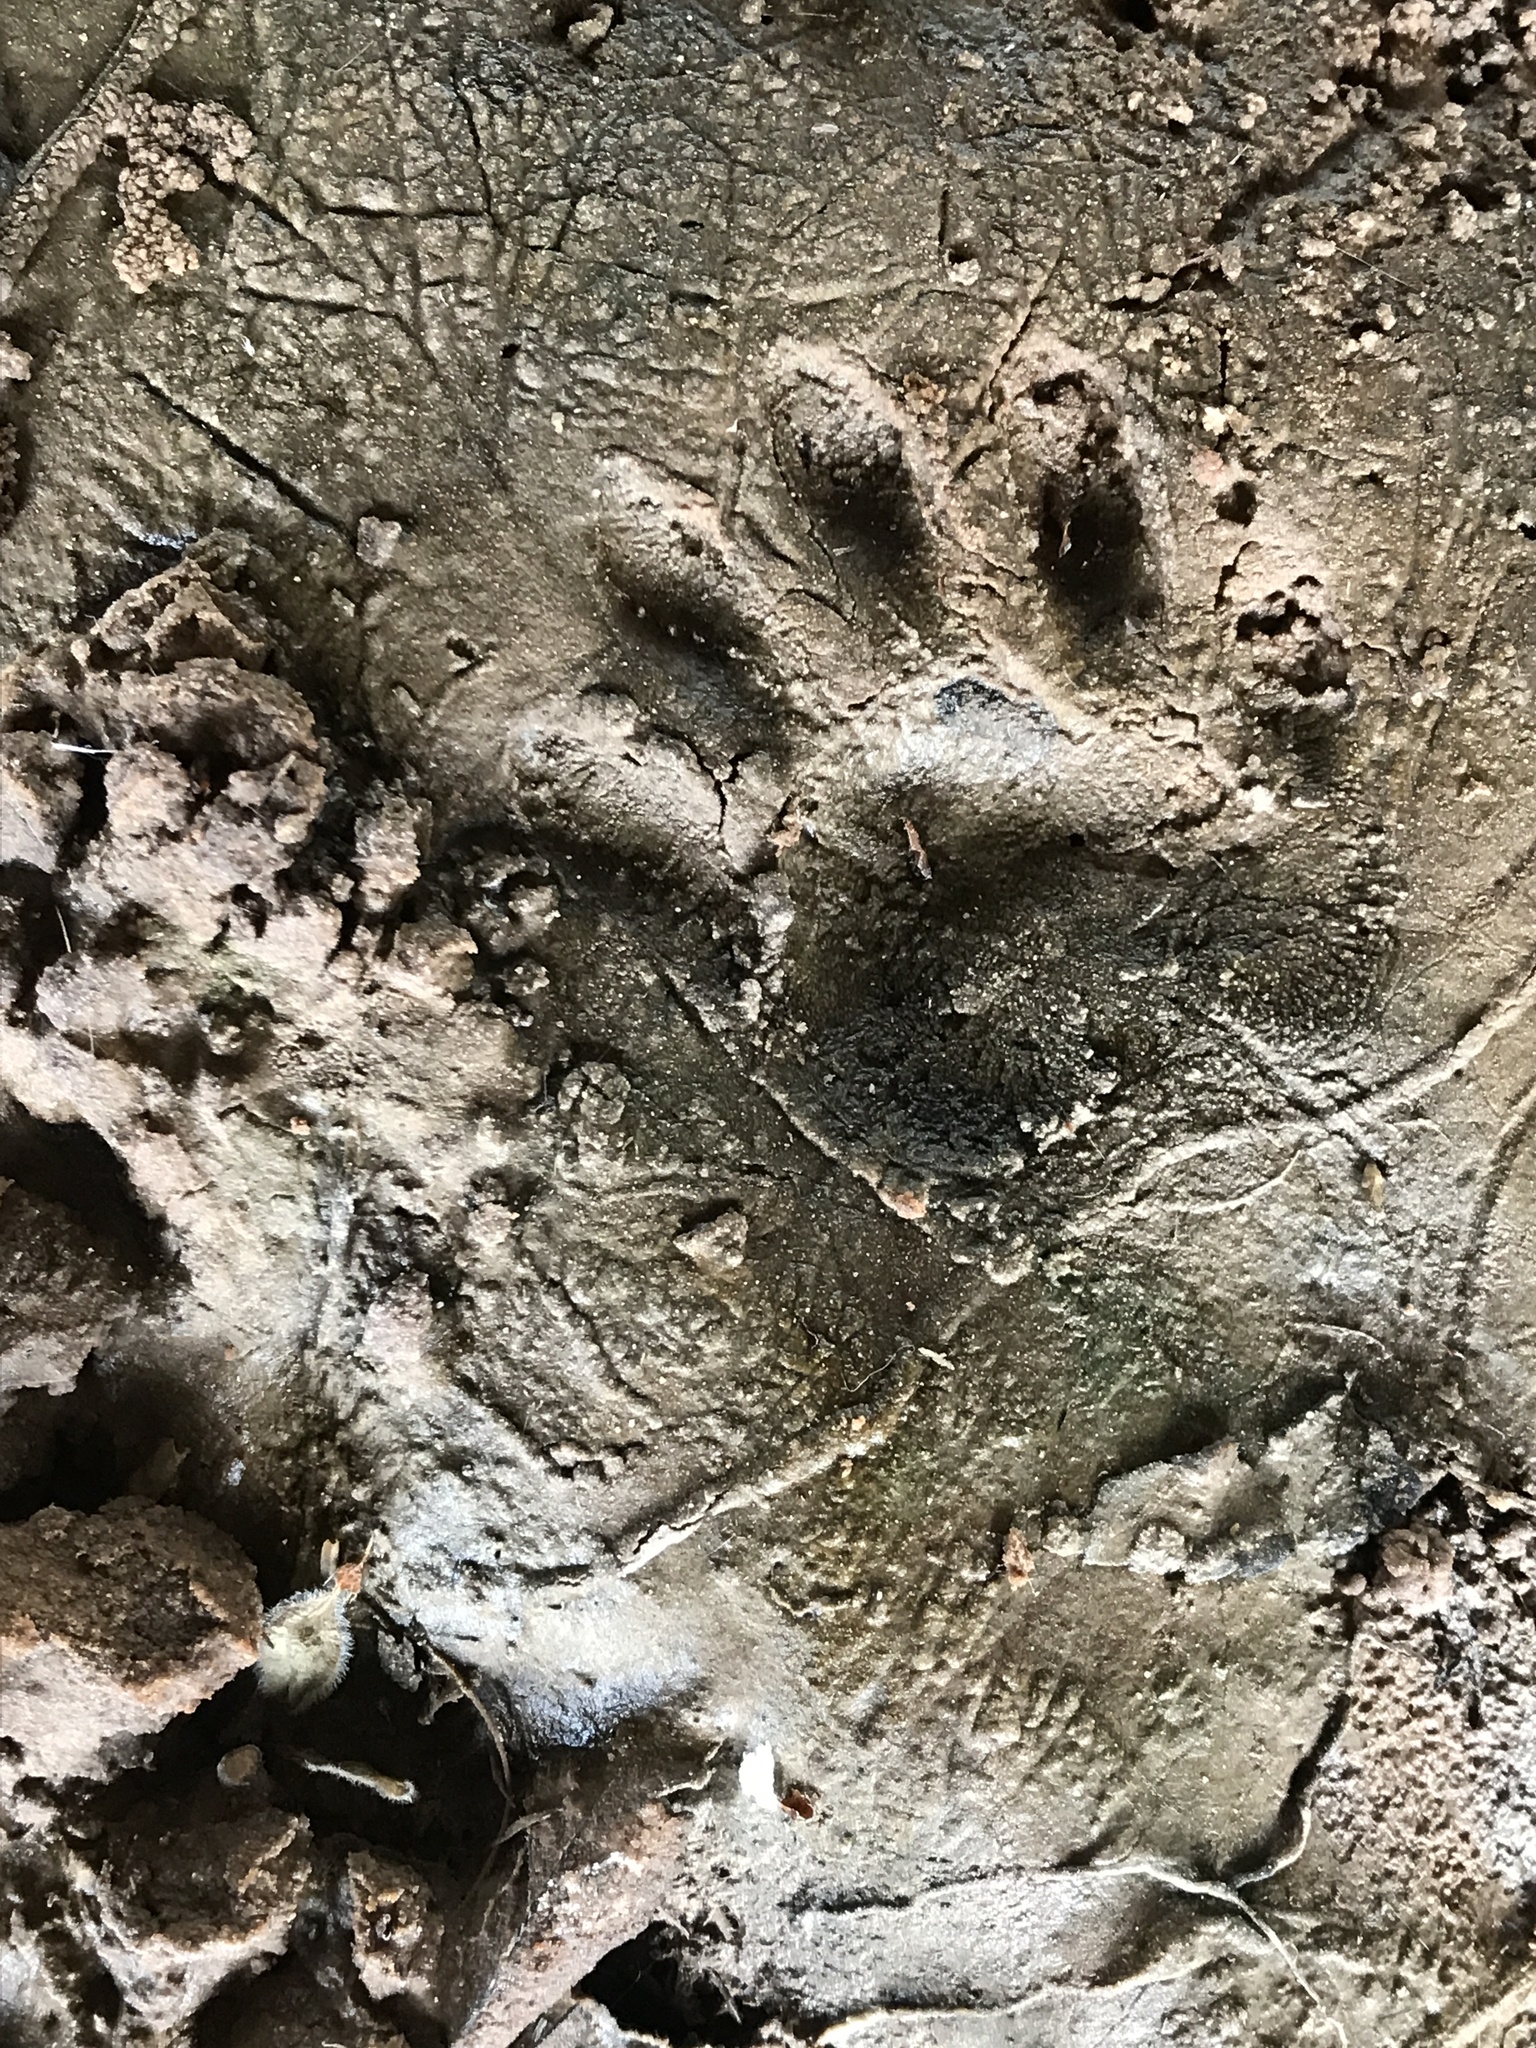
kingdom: Animalia
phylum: Chordata
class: Mammalia
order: Carnivora
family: Procyonidae
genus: Procyon
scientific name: Procyon lotor
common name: Raccoon
